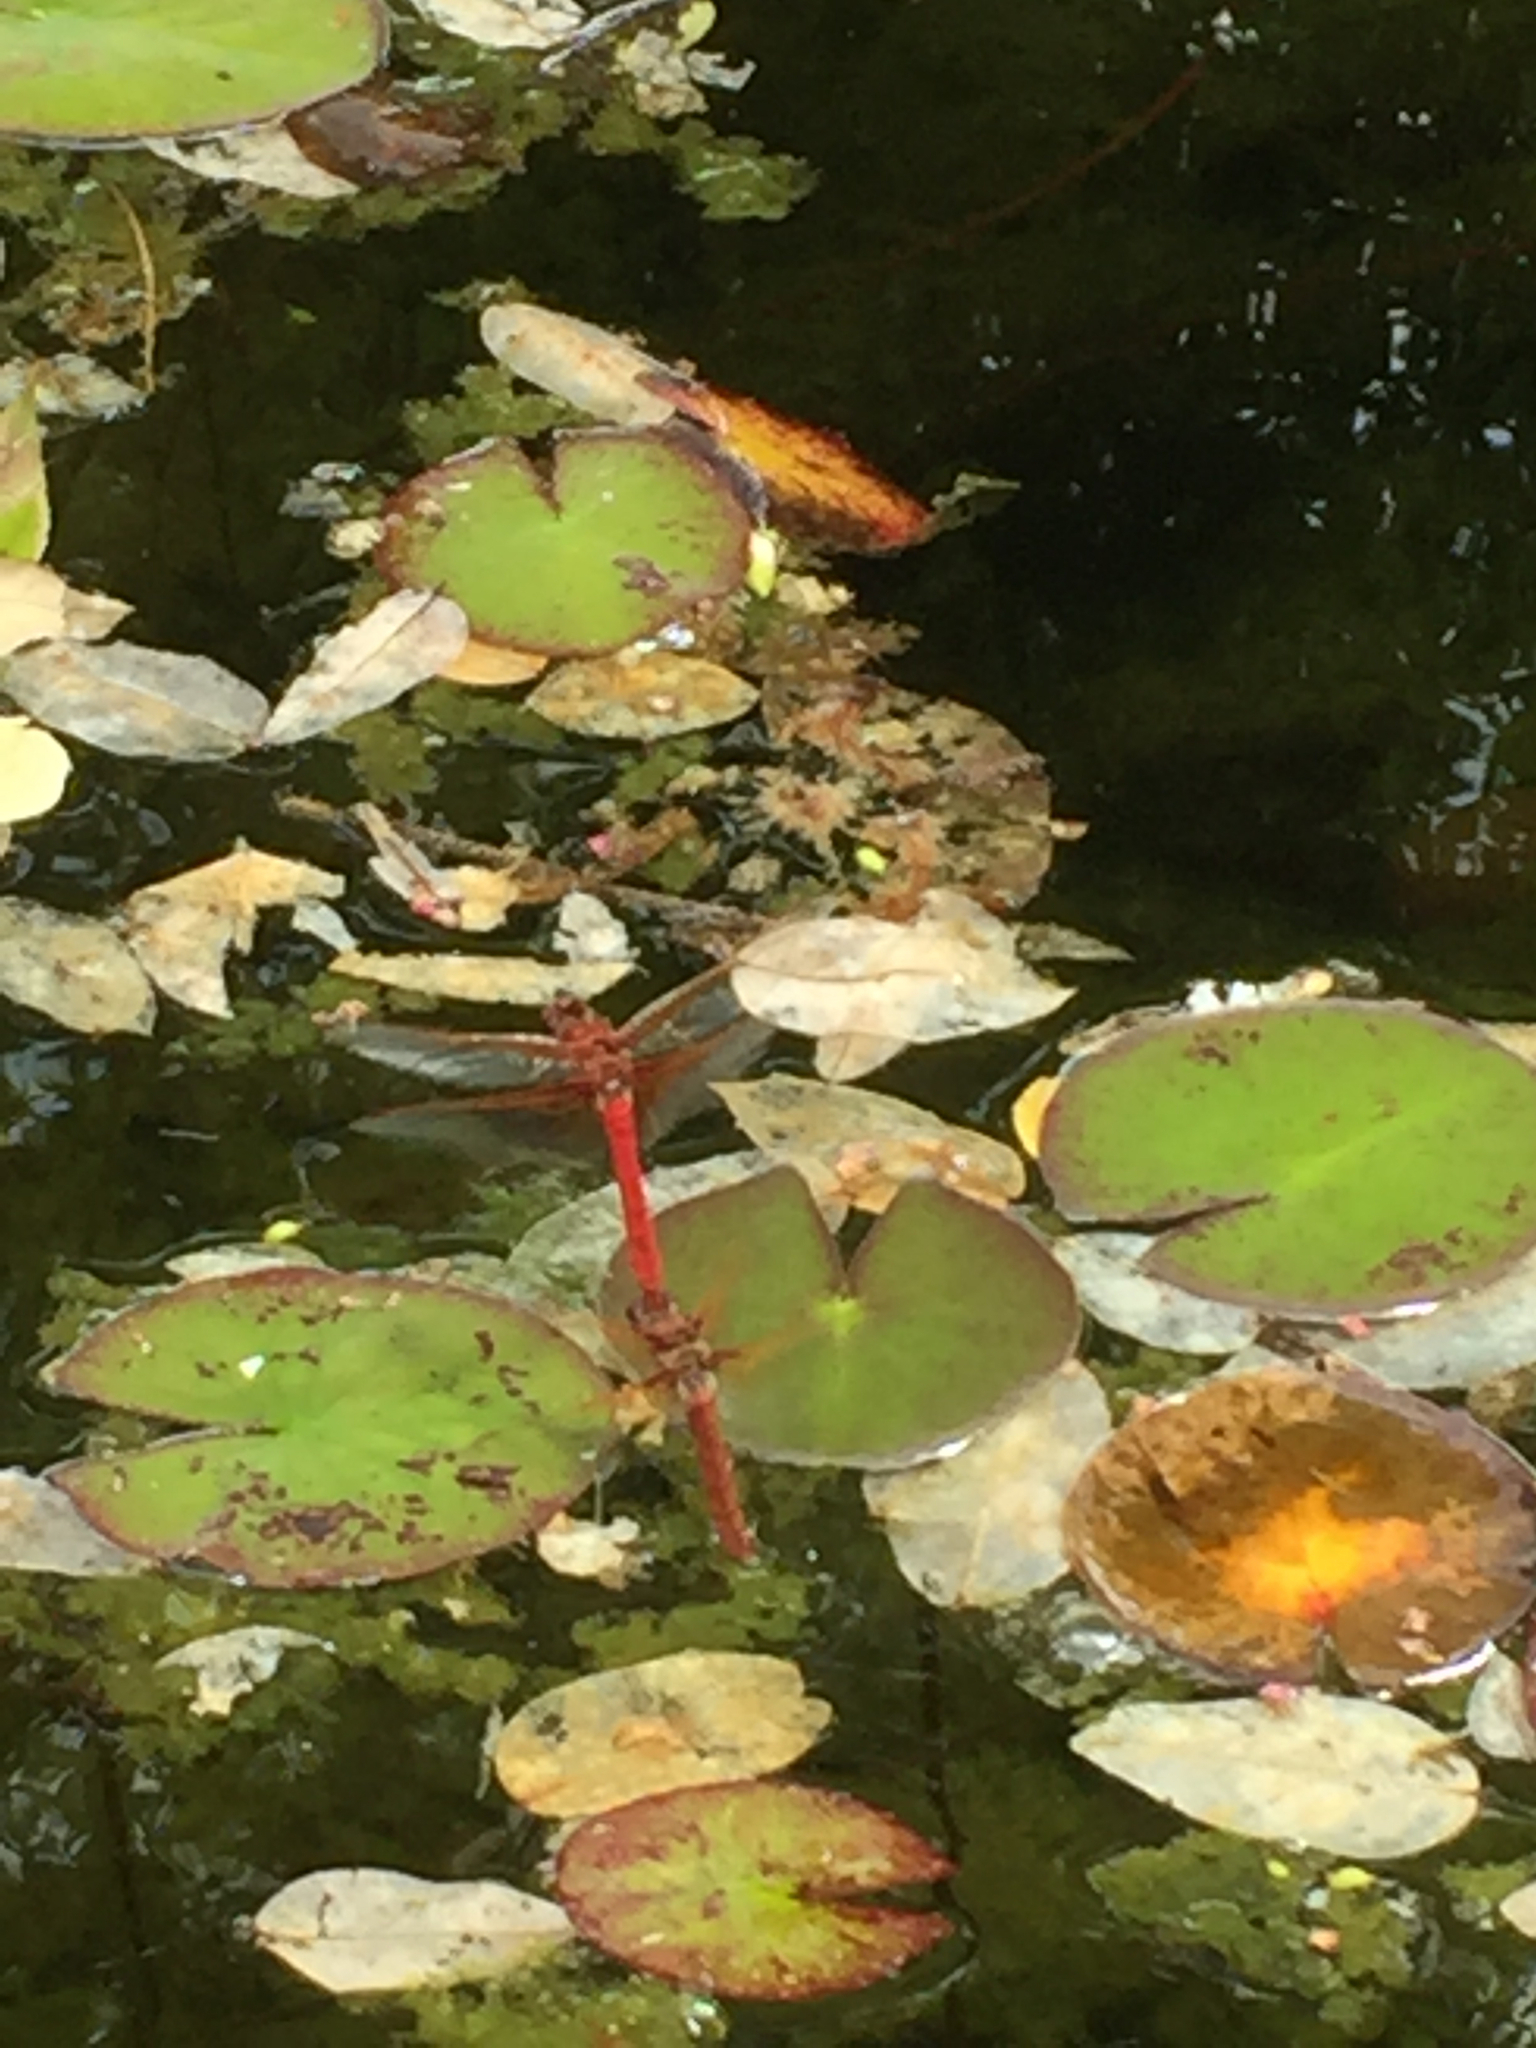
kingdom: Animalia
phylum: Arthropoda
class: Insecta
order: Odonata
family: Libellulidae
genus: Sympetrum
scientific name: Sympetrum illotum
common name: Cardinal meadowhawk
